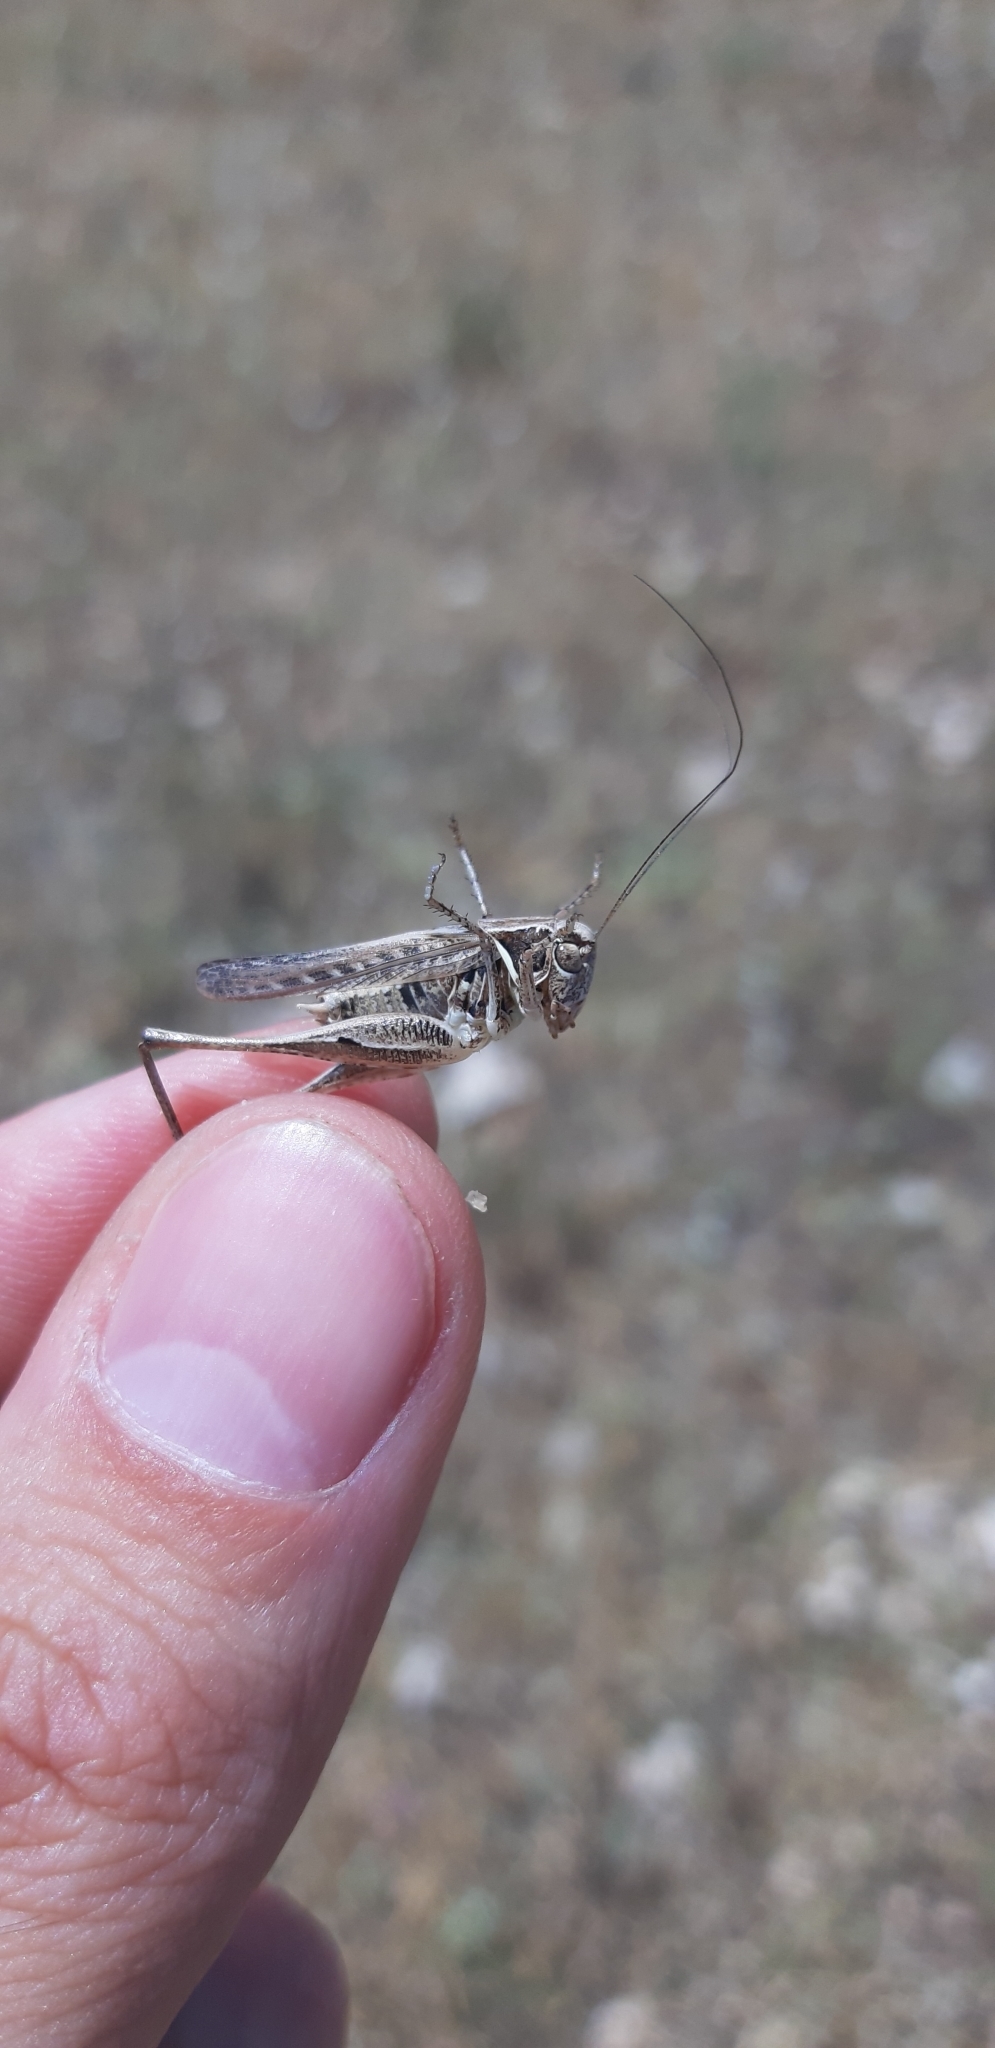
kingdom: Animalia
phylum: Arthropoda
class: Insecta
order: Orthoptera
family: Tettigoniidae
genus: Montana
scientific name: Montana stricta
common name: Italian bush-cricket
